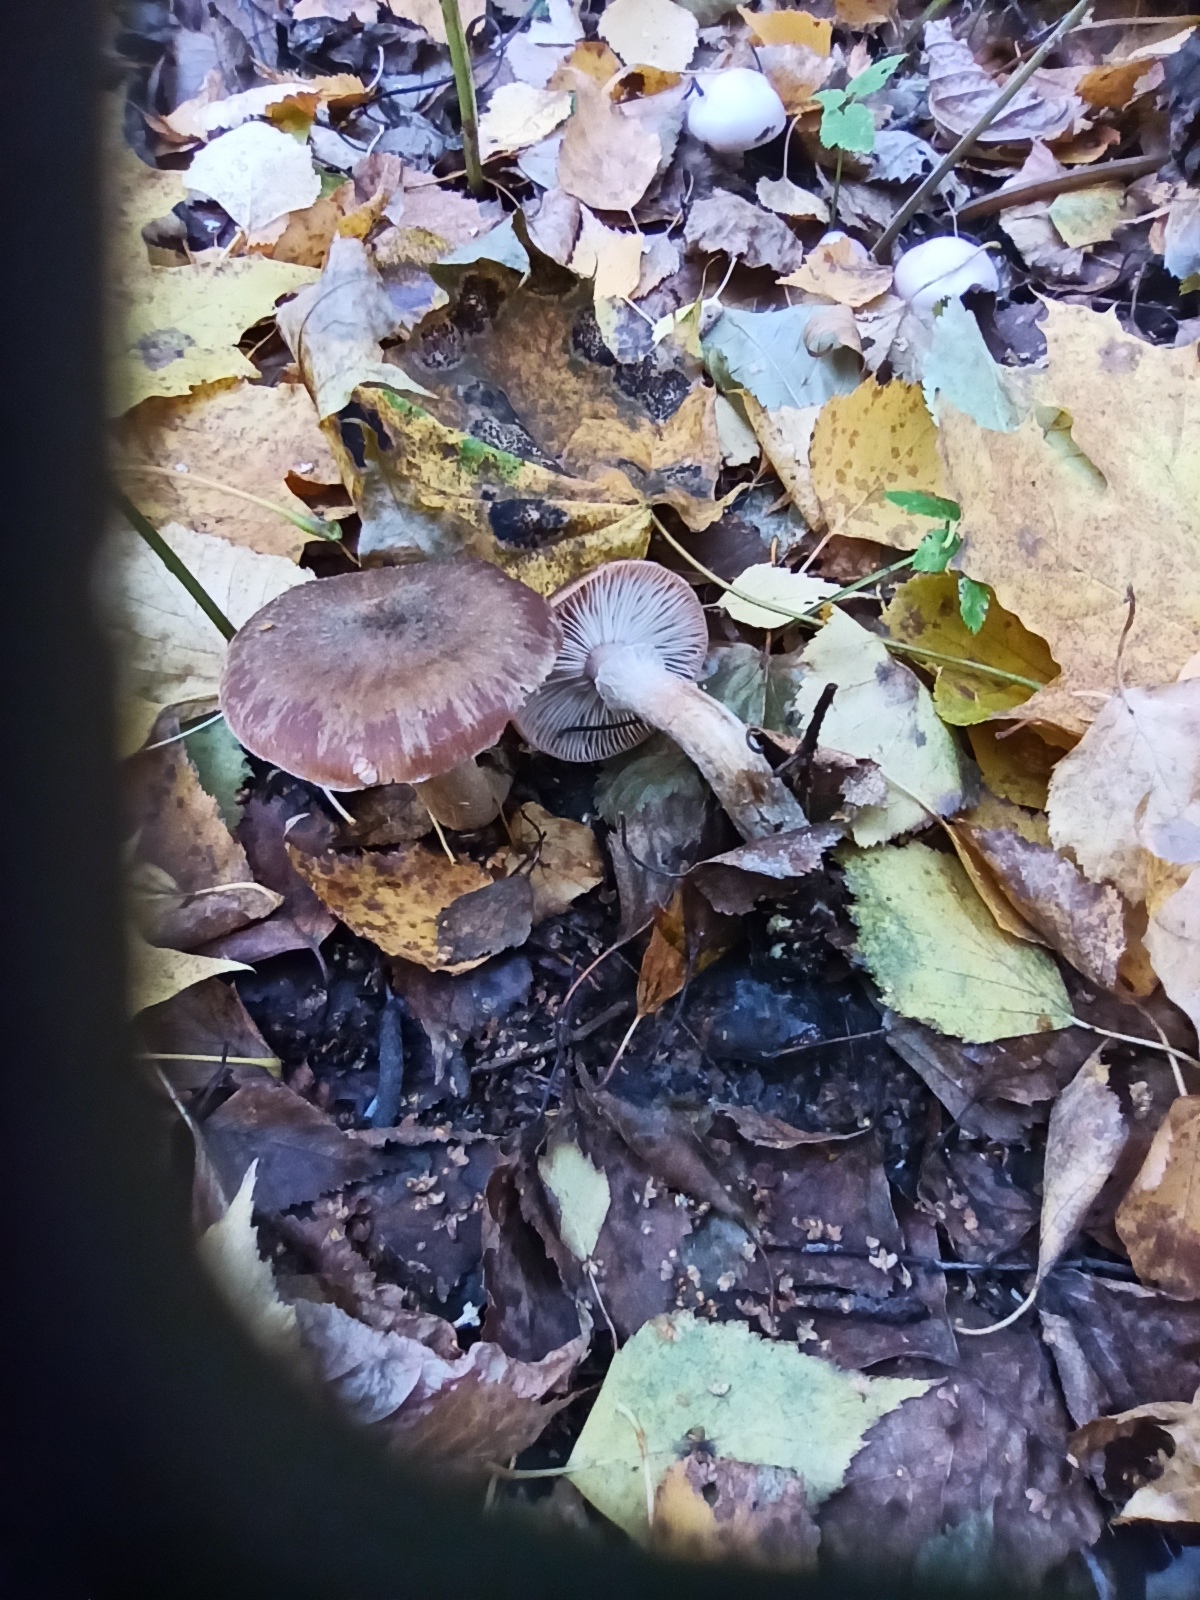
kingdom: Fungi
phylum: Basidiomycota
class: Agaricomycetes
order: Agaricales
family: Physalacriaceae
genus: Armillaria
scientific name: Armillaria cepistipes
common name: Mullet honey fungus
